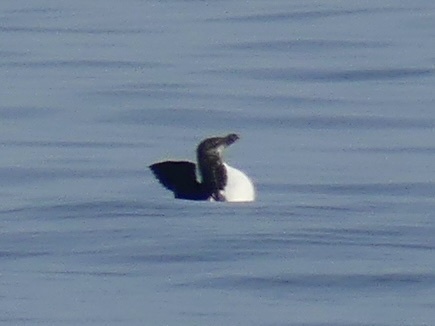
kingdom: Animalia
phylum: Chordata
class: Aves
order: Charadriiformes
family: Alcidae
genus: Alca
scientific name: Alca torda
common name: Razorbill
